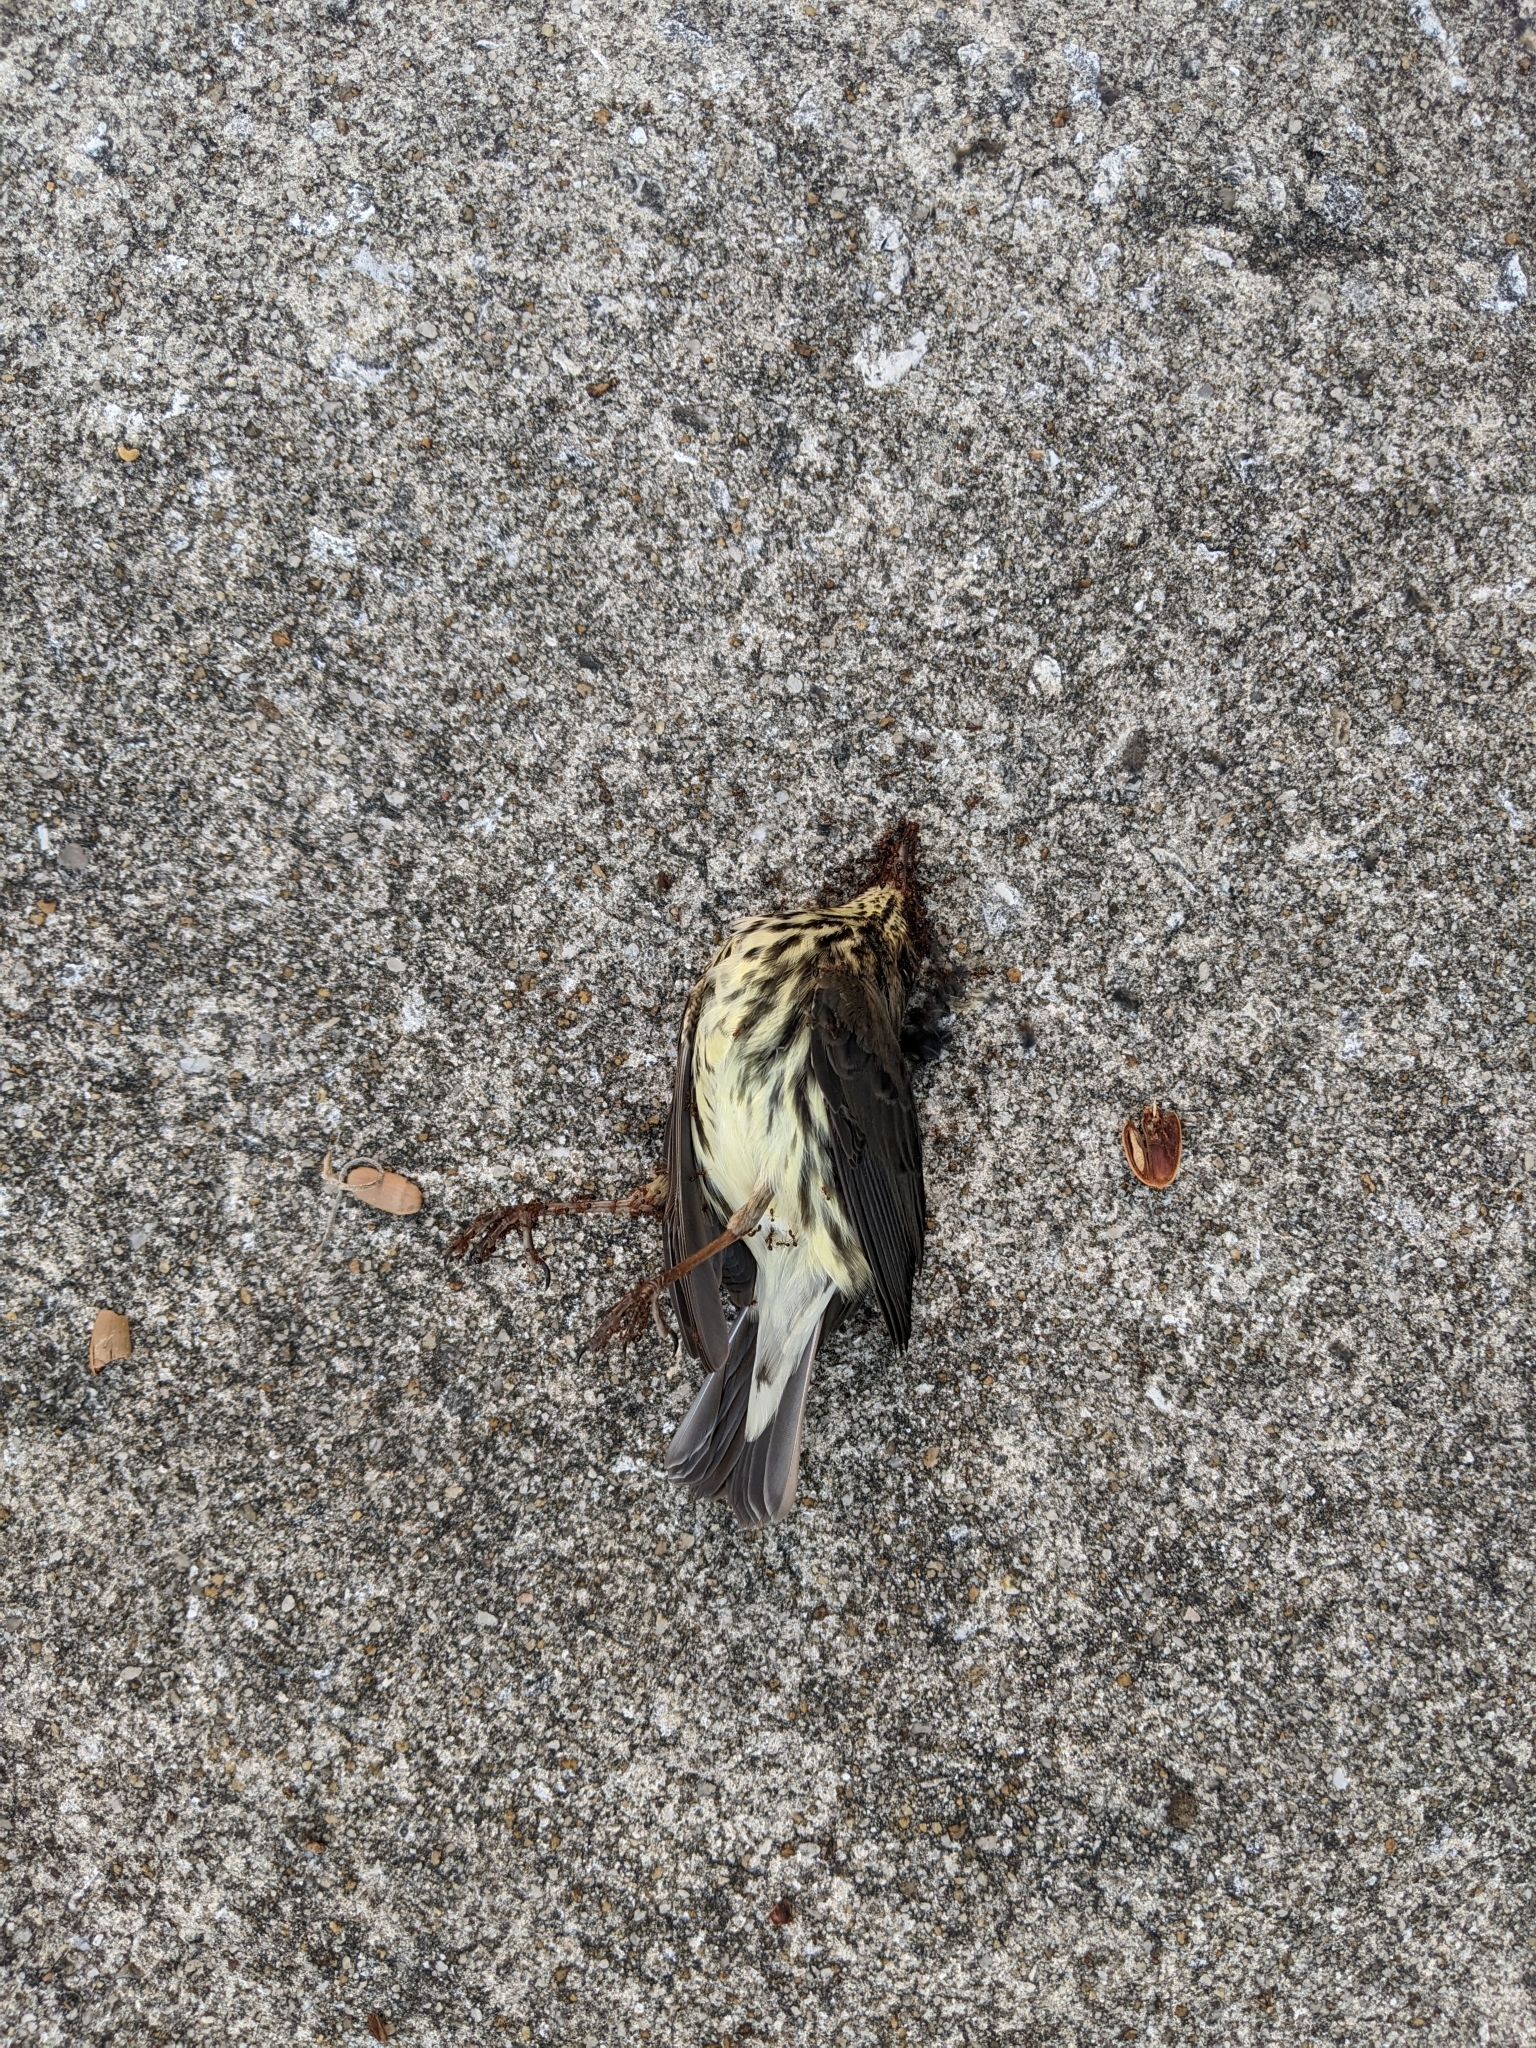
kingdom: Animalia
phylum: Chordata
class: Aves
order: Passeriformes
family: Parulidae
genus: Parkesia
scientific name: Parkesia noveboracensis
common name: Northern waterthrush
